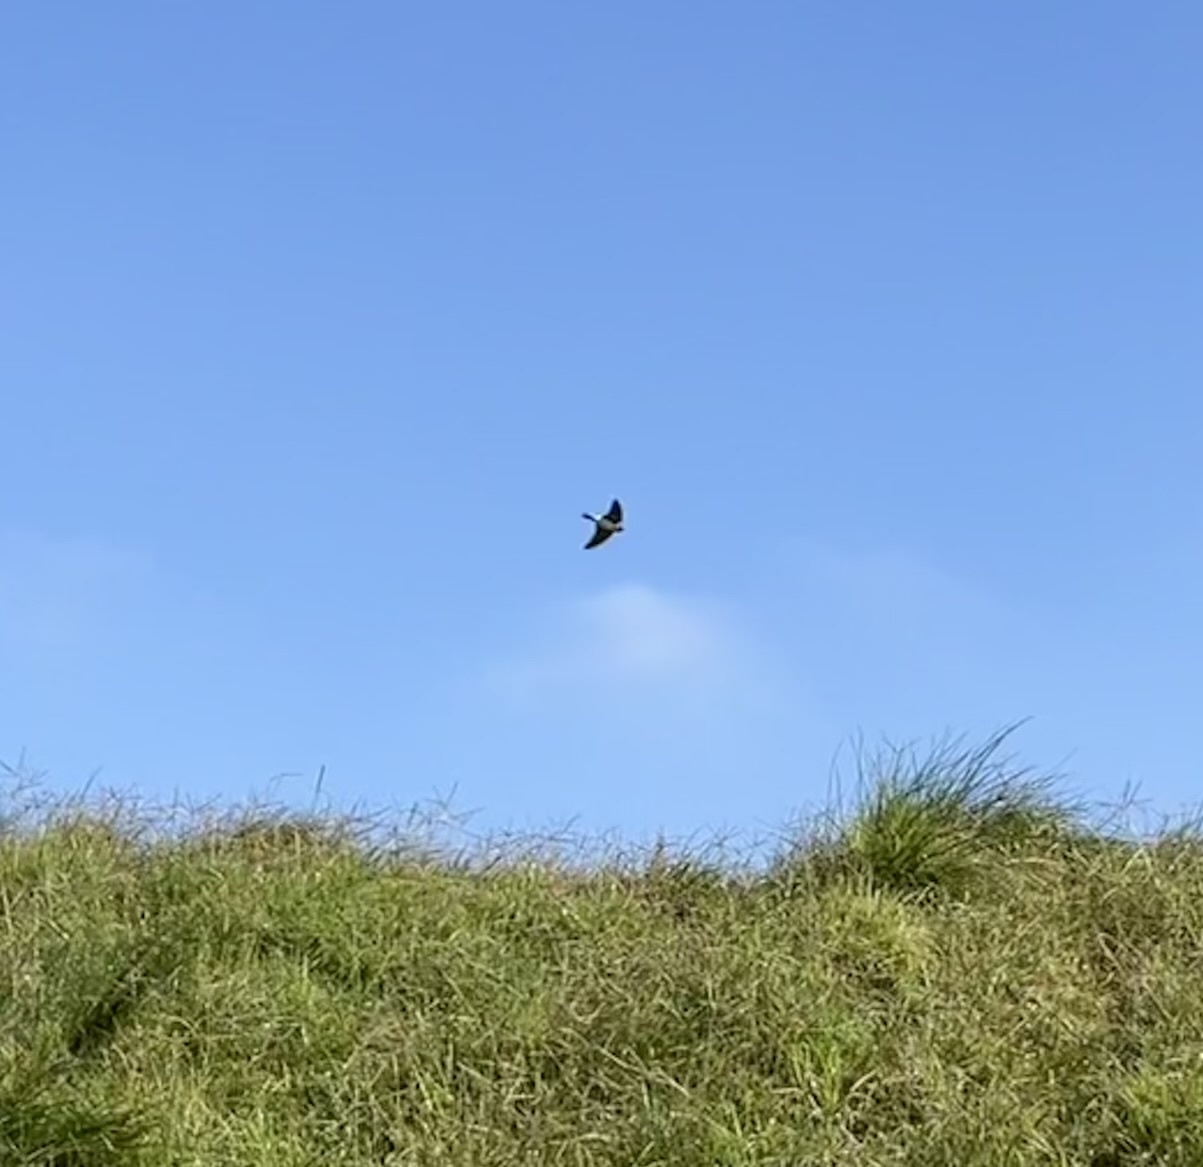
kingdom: Animalia
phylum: Chordata
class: Aves
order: Passeriformes
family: Hirundinidae
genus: Petrochelidon
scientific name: Petrochelidon pyrrhonota
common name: American cliff swallow
